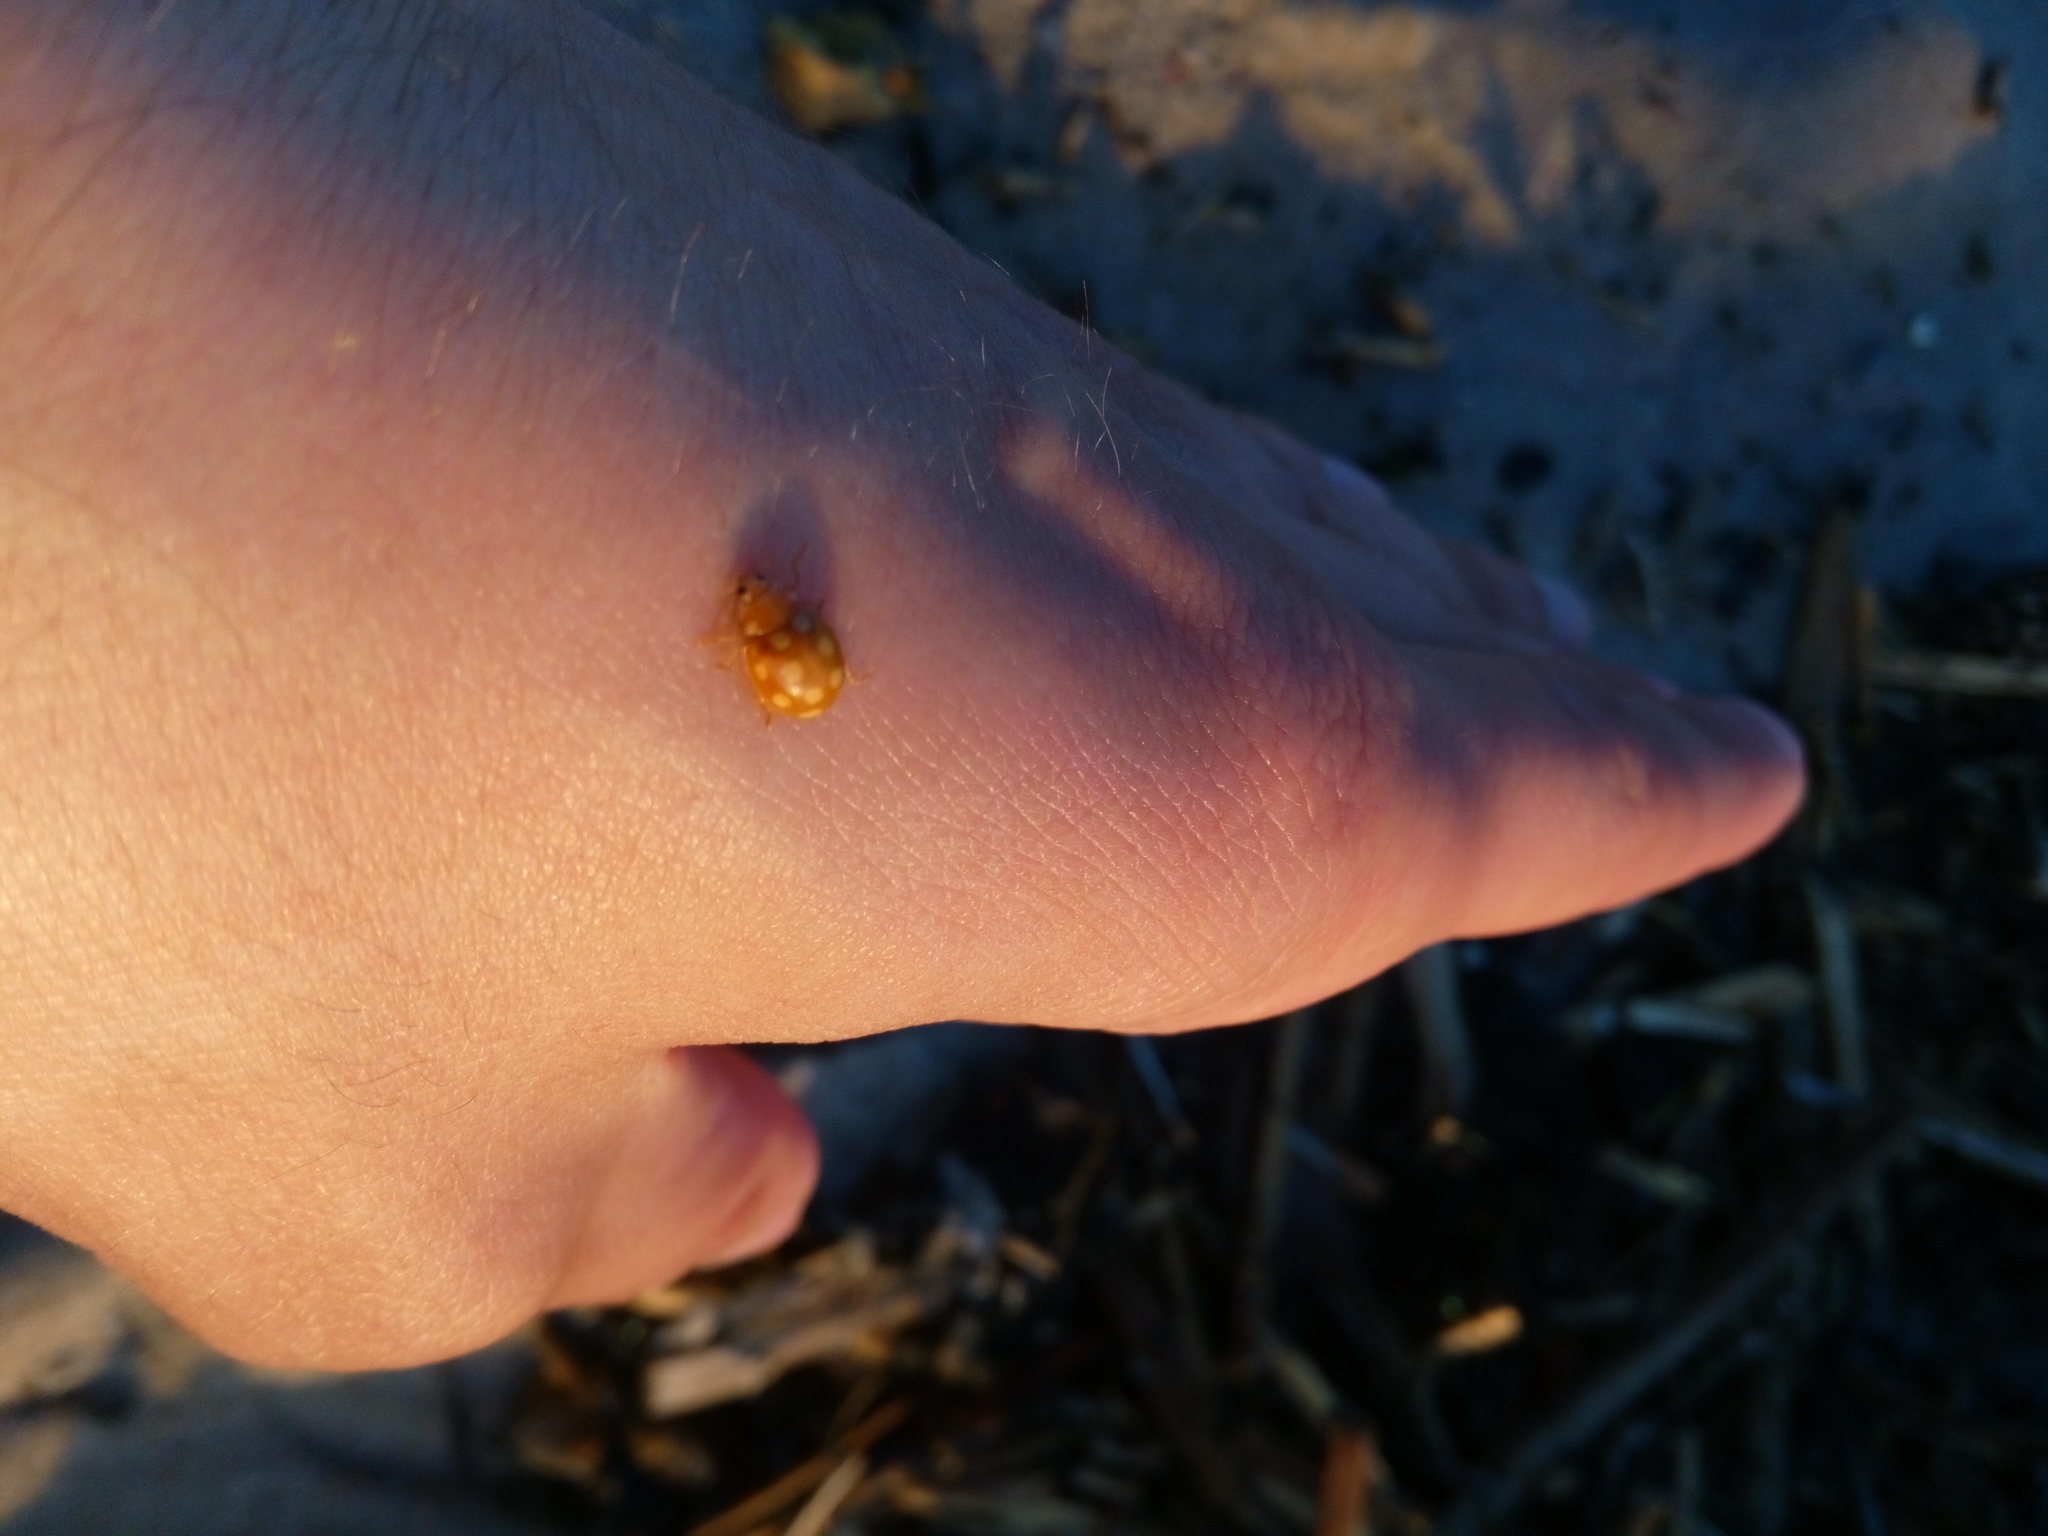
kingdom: Animalia
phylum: Arthropoda
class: Insecta
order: Coleoptera
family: Coccinellidae
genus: Calvia
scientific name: Calvia quindecimguttata
